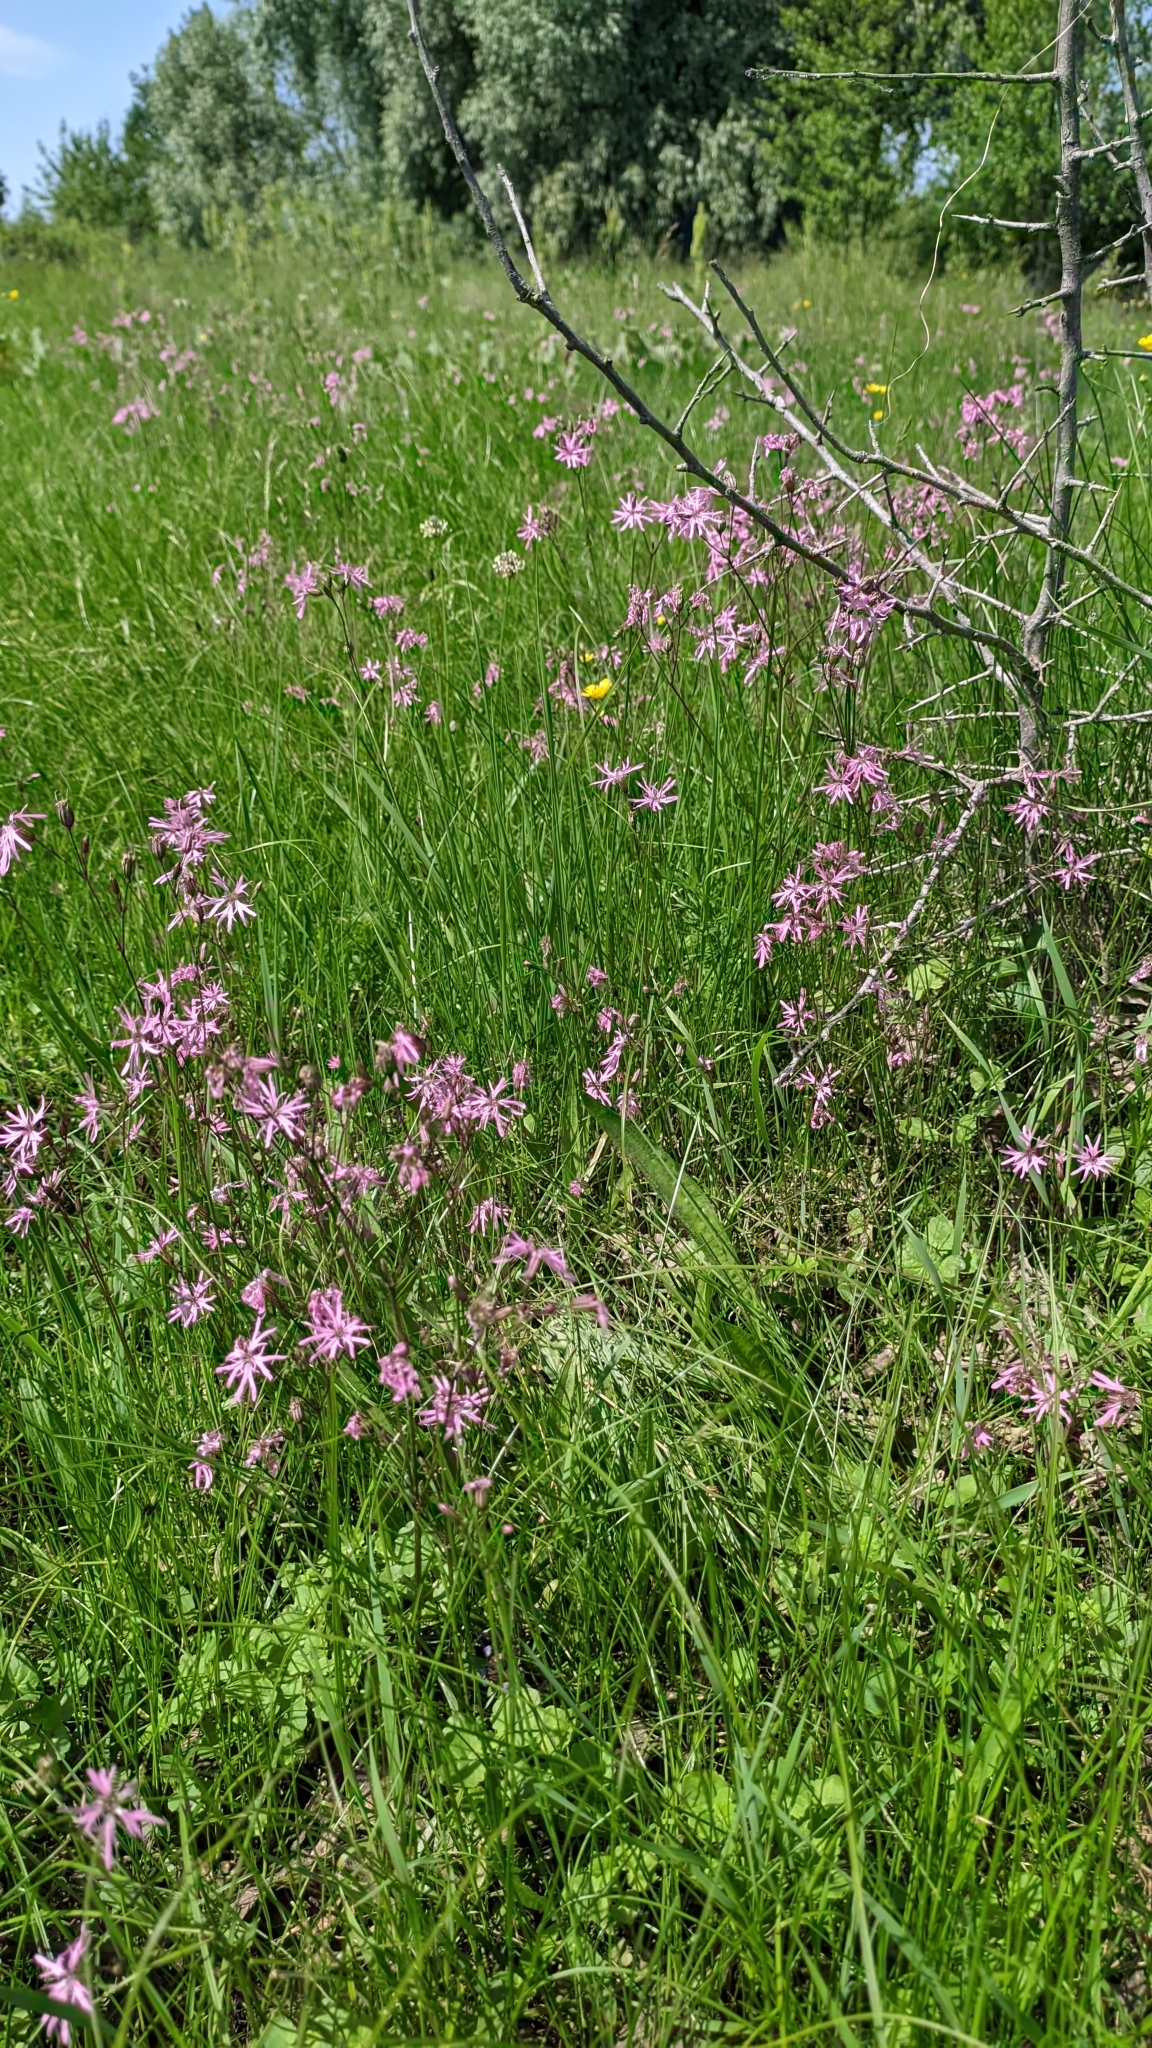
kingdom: Plantae
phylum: Tracheophyta
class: Magnoliopsida
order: Caryophyllales
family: Caryophyllaceae
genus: Silene
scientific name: Silene flos-cuculi
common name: Ragged-robin
